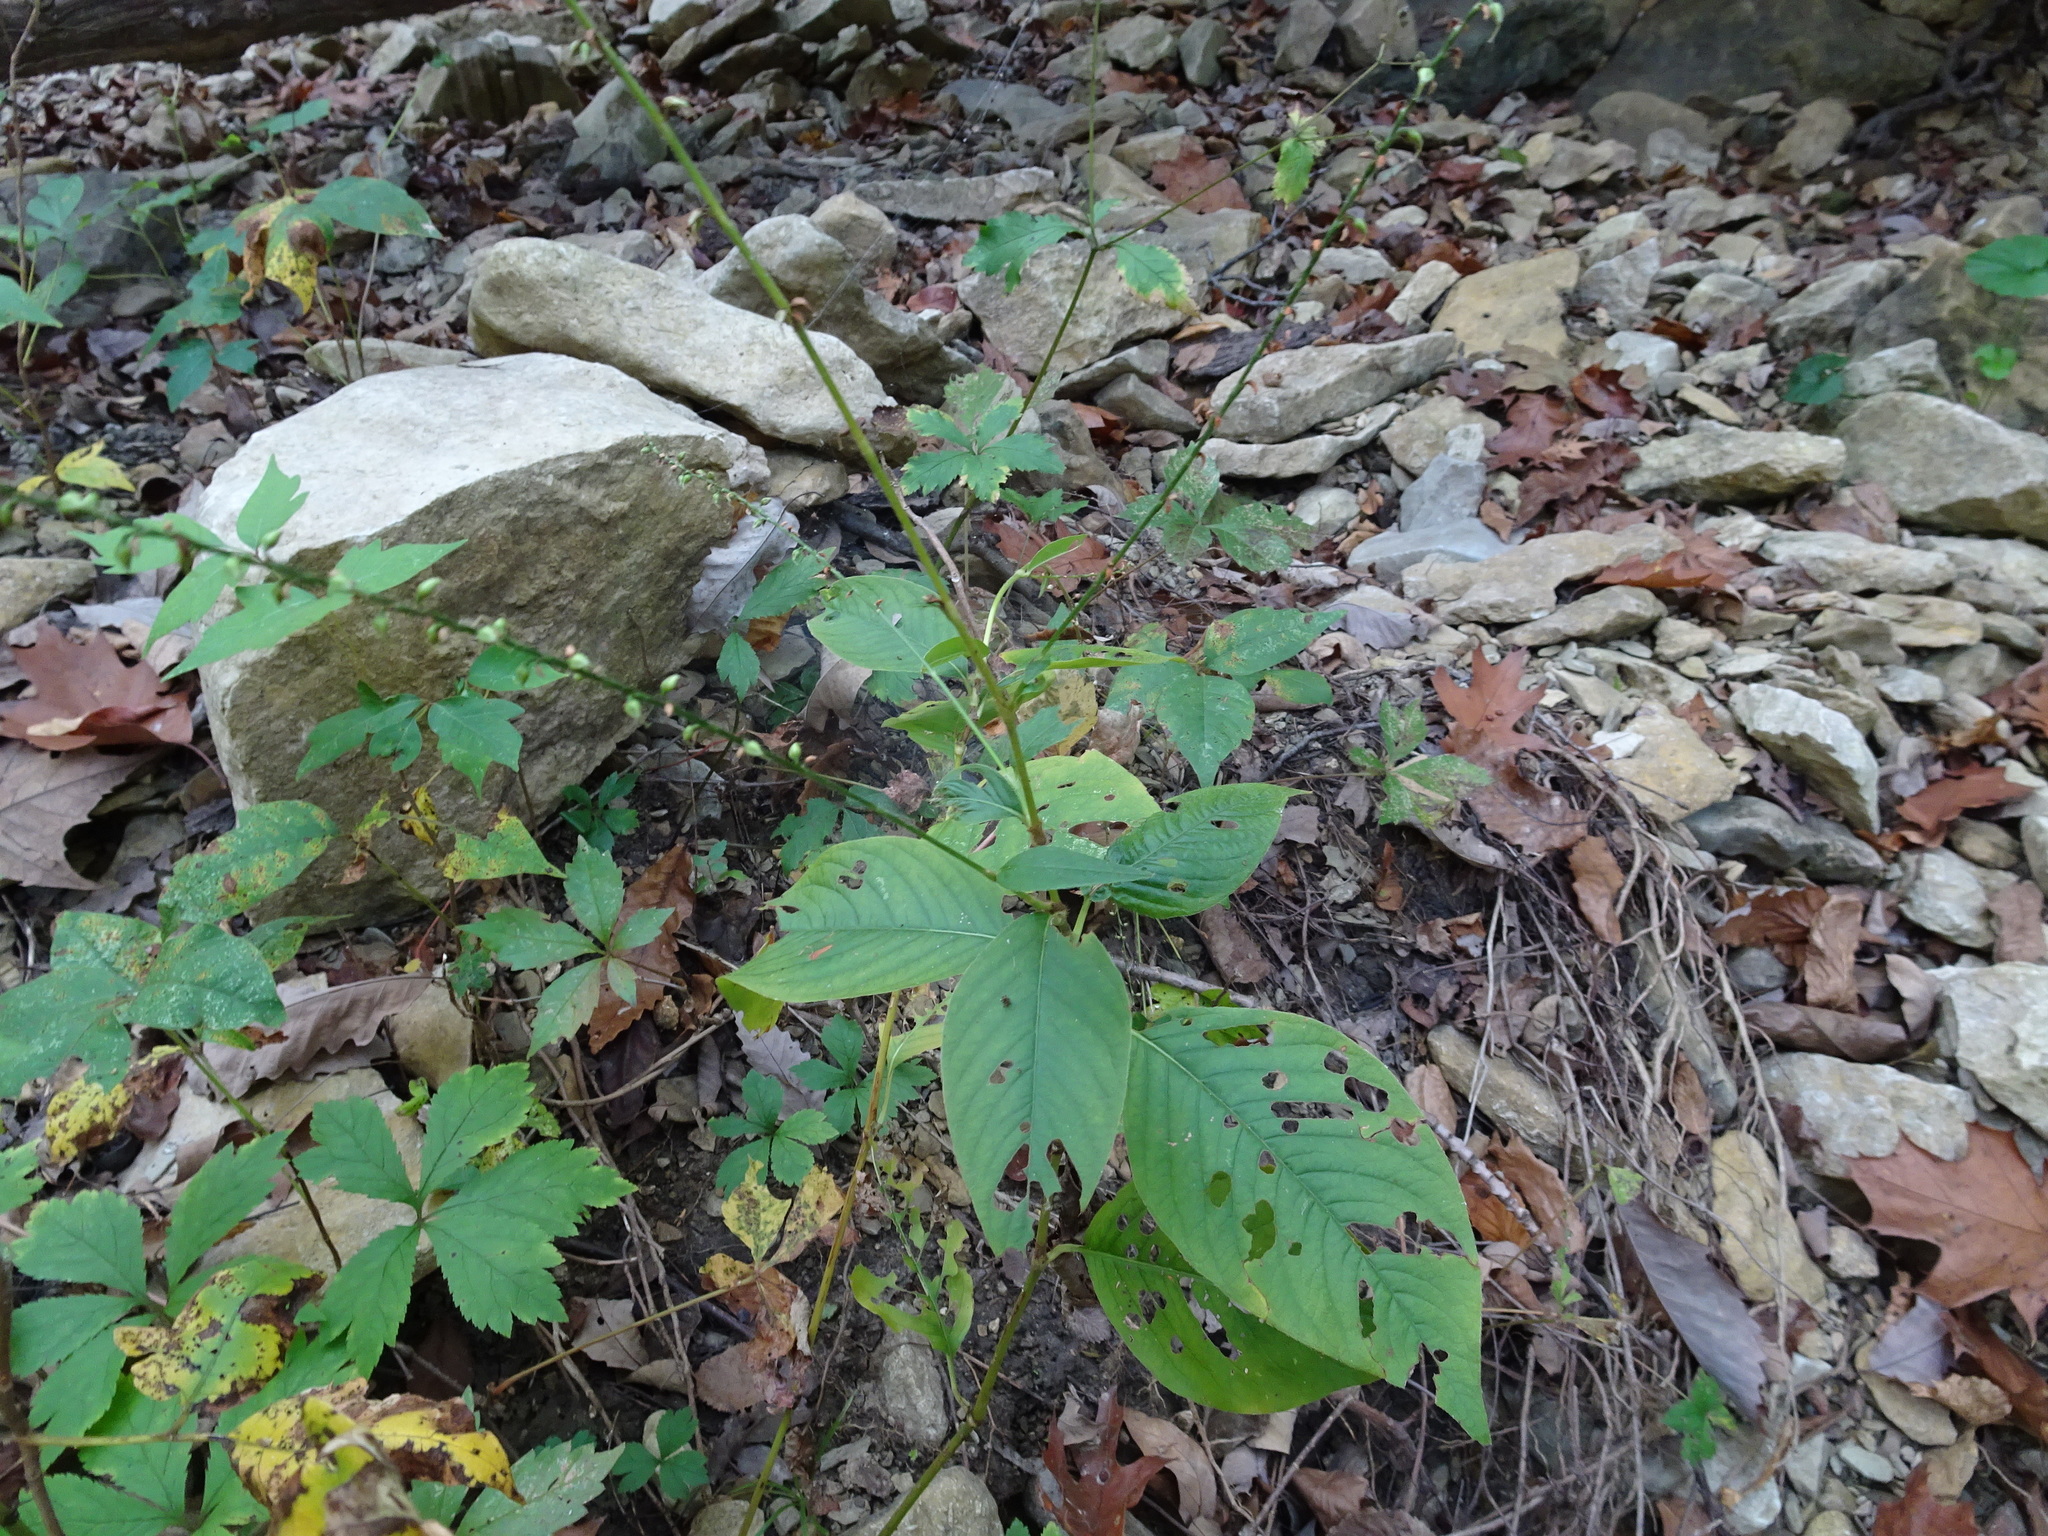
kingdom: Plantae
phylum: Tracheophyta
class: Magnoliopsida
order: Caryophyllales
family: Polygonaceae
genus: Persicaria
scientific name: Persicaria virginiana
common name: Jumpseed
